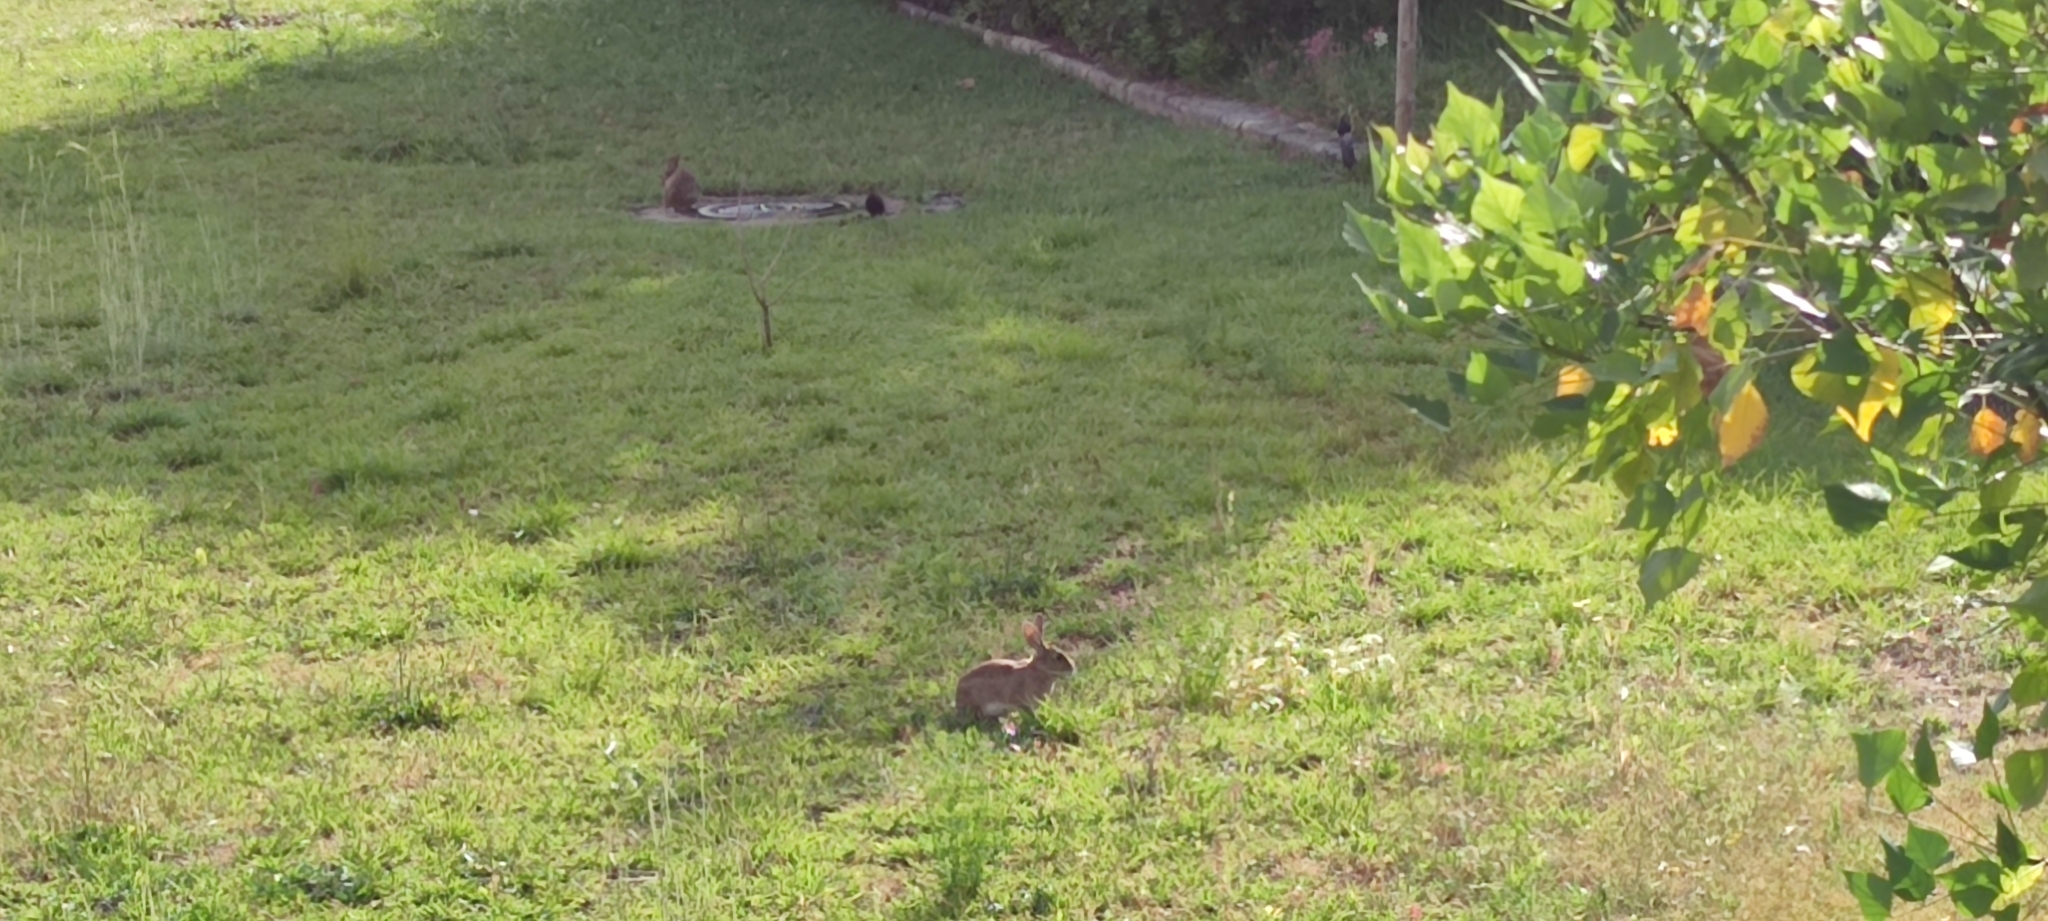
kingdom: Animalia
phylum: Chordata
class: Mammalia
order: Lagomorpha
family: Leporidae
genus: Oryctolagus
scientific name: Oryctolagus cuniculus
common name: European rabbit
